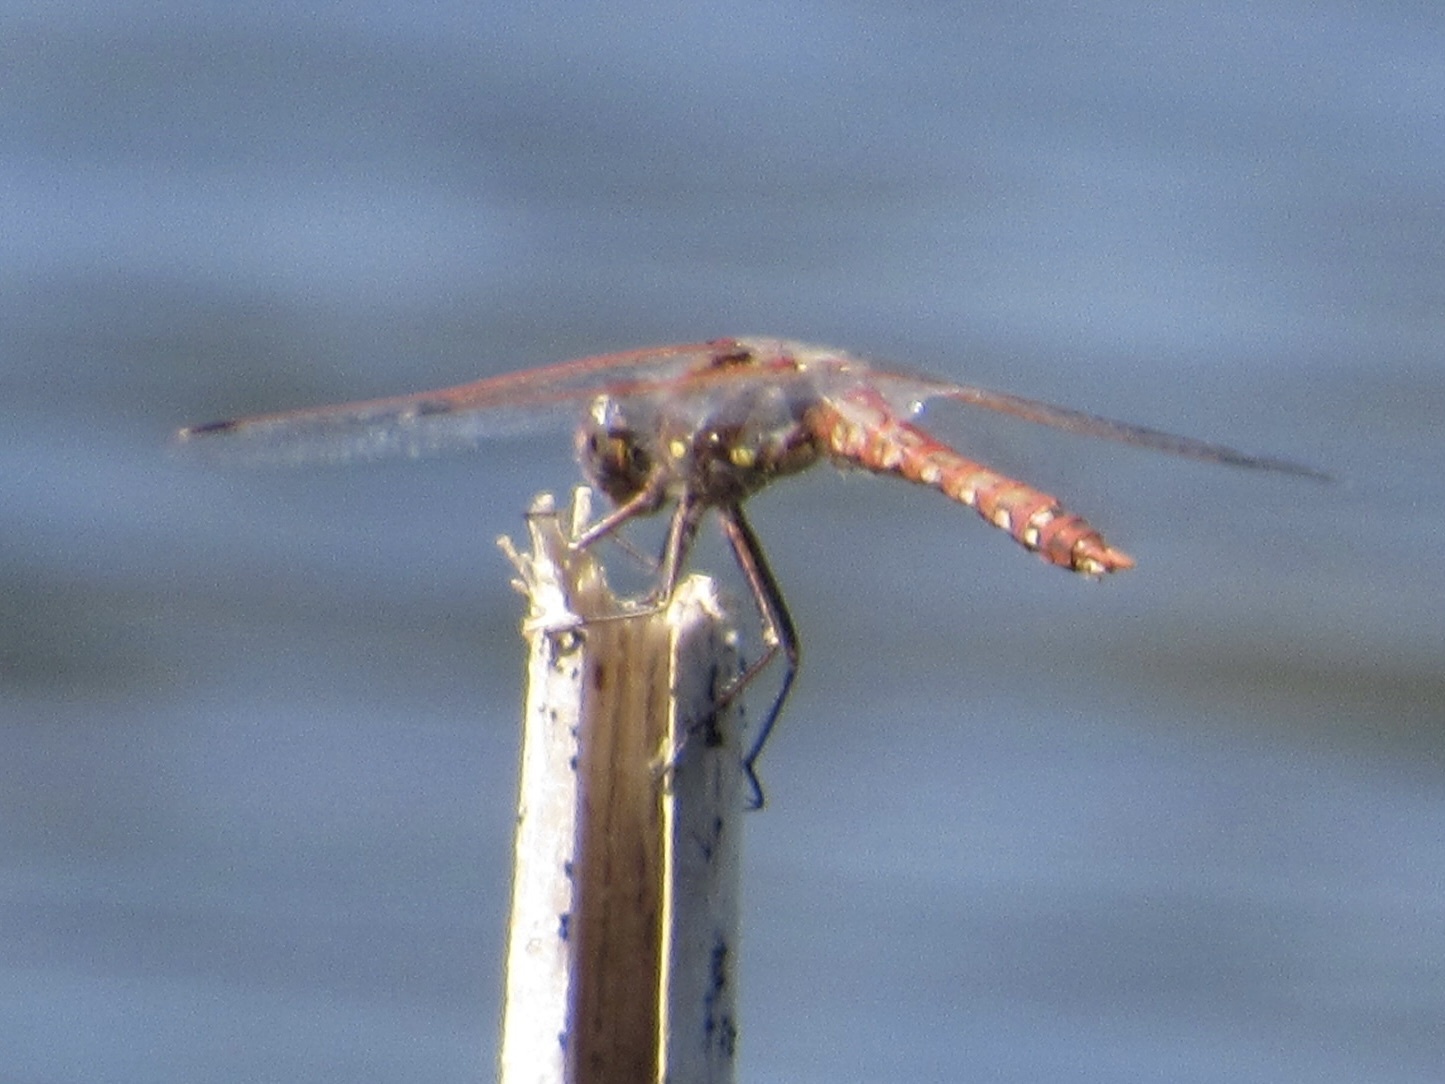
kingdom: Animalia
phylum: Arthropoda
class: Insecta
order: Odonata
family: Libellulidae
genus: Sympetrum
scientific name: Sympetrum corruptum
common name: Variegated meadowhawk
